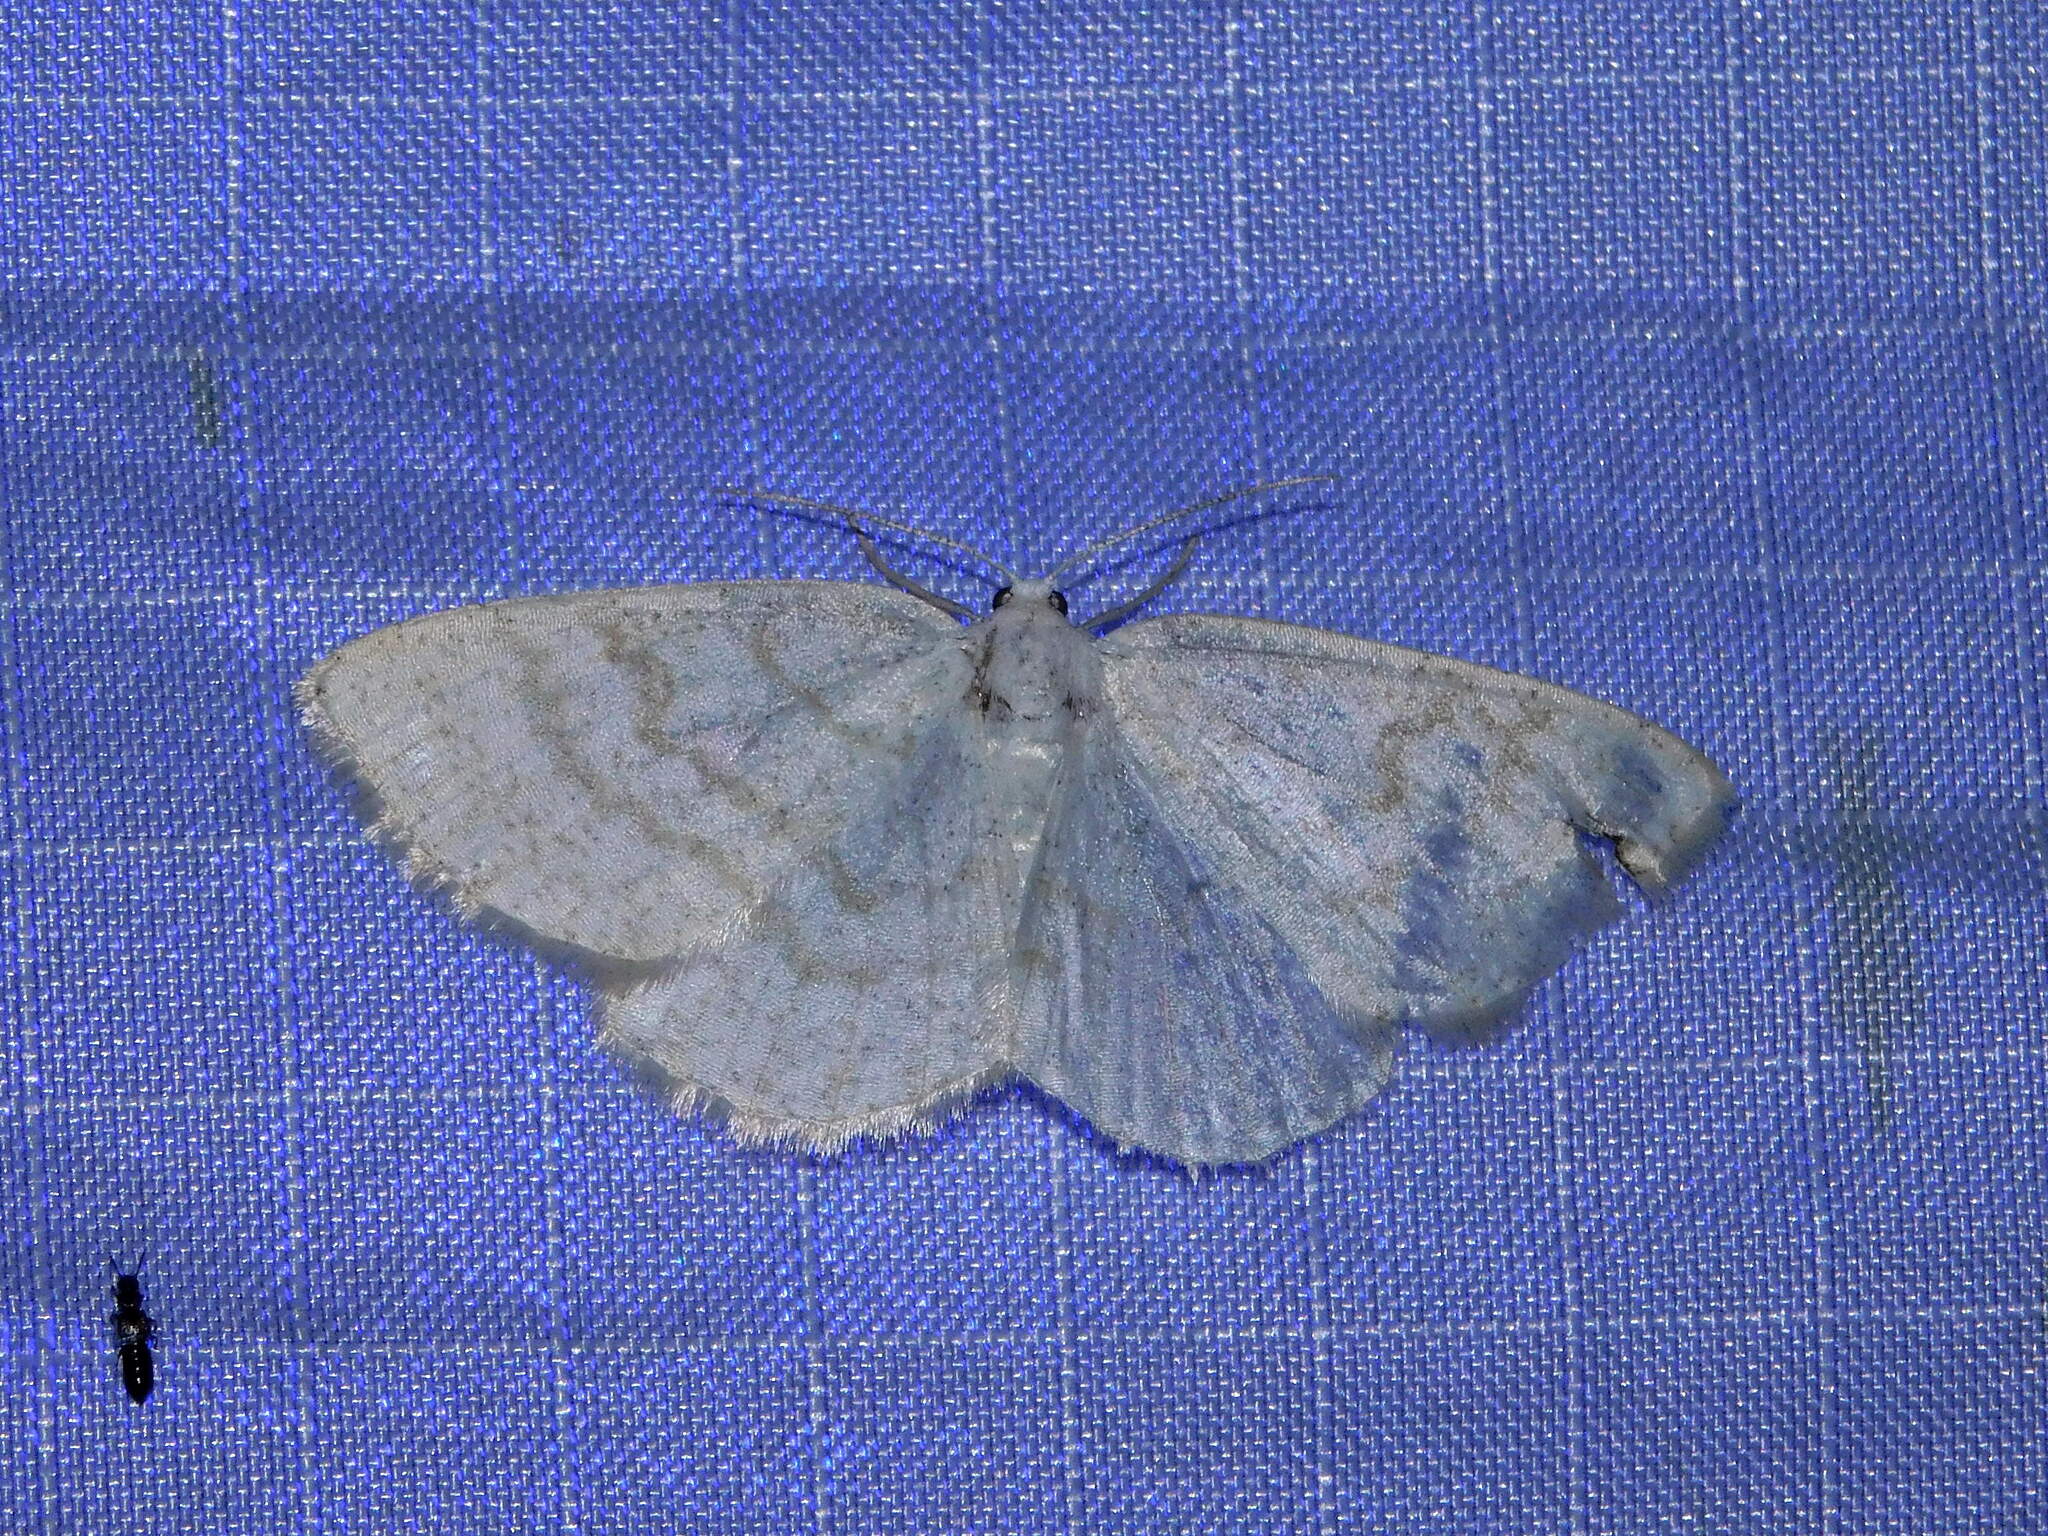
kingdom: Animalia
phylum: Arthropoda
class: Insecta
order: Lepidoptera
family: Geometridae
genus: Cabera
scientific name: Cabera exanthemata
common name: Common wave
